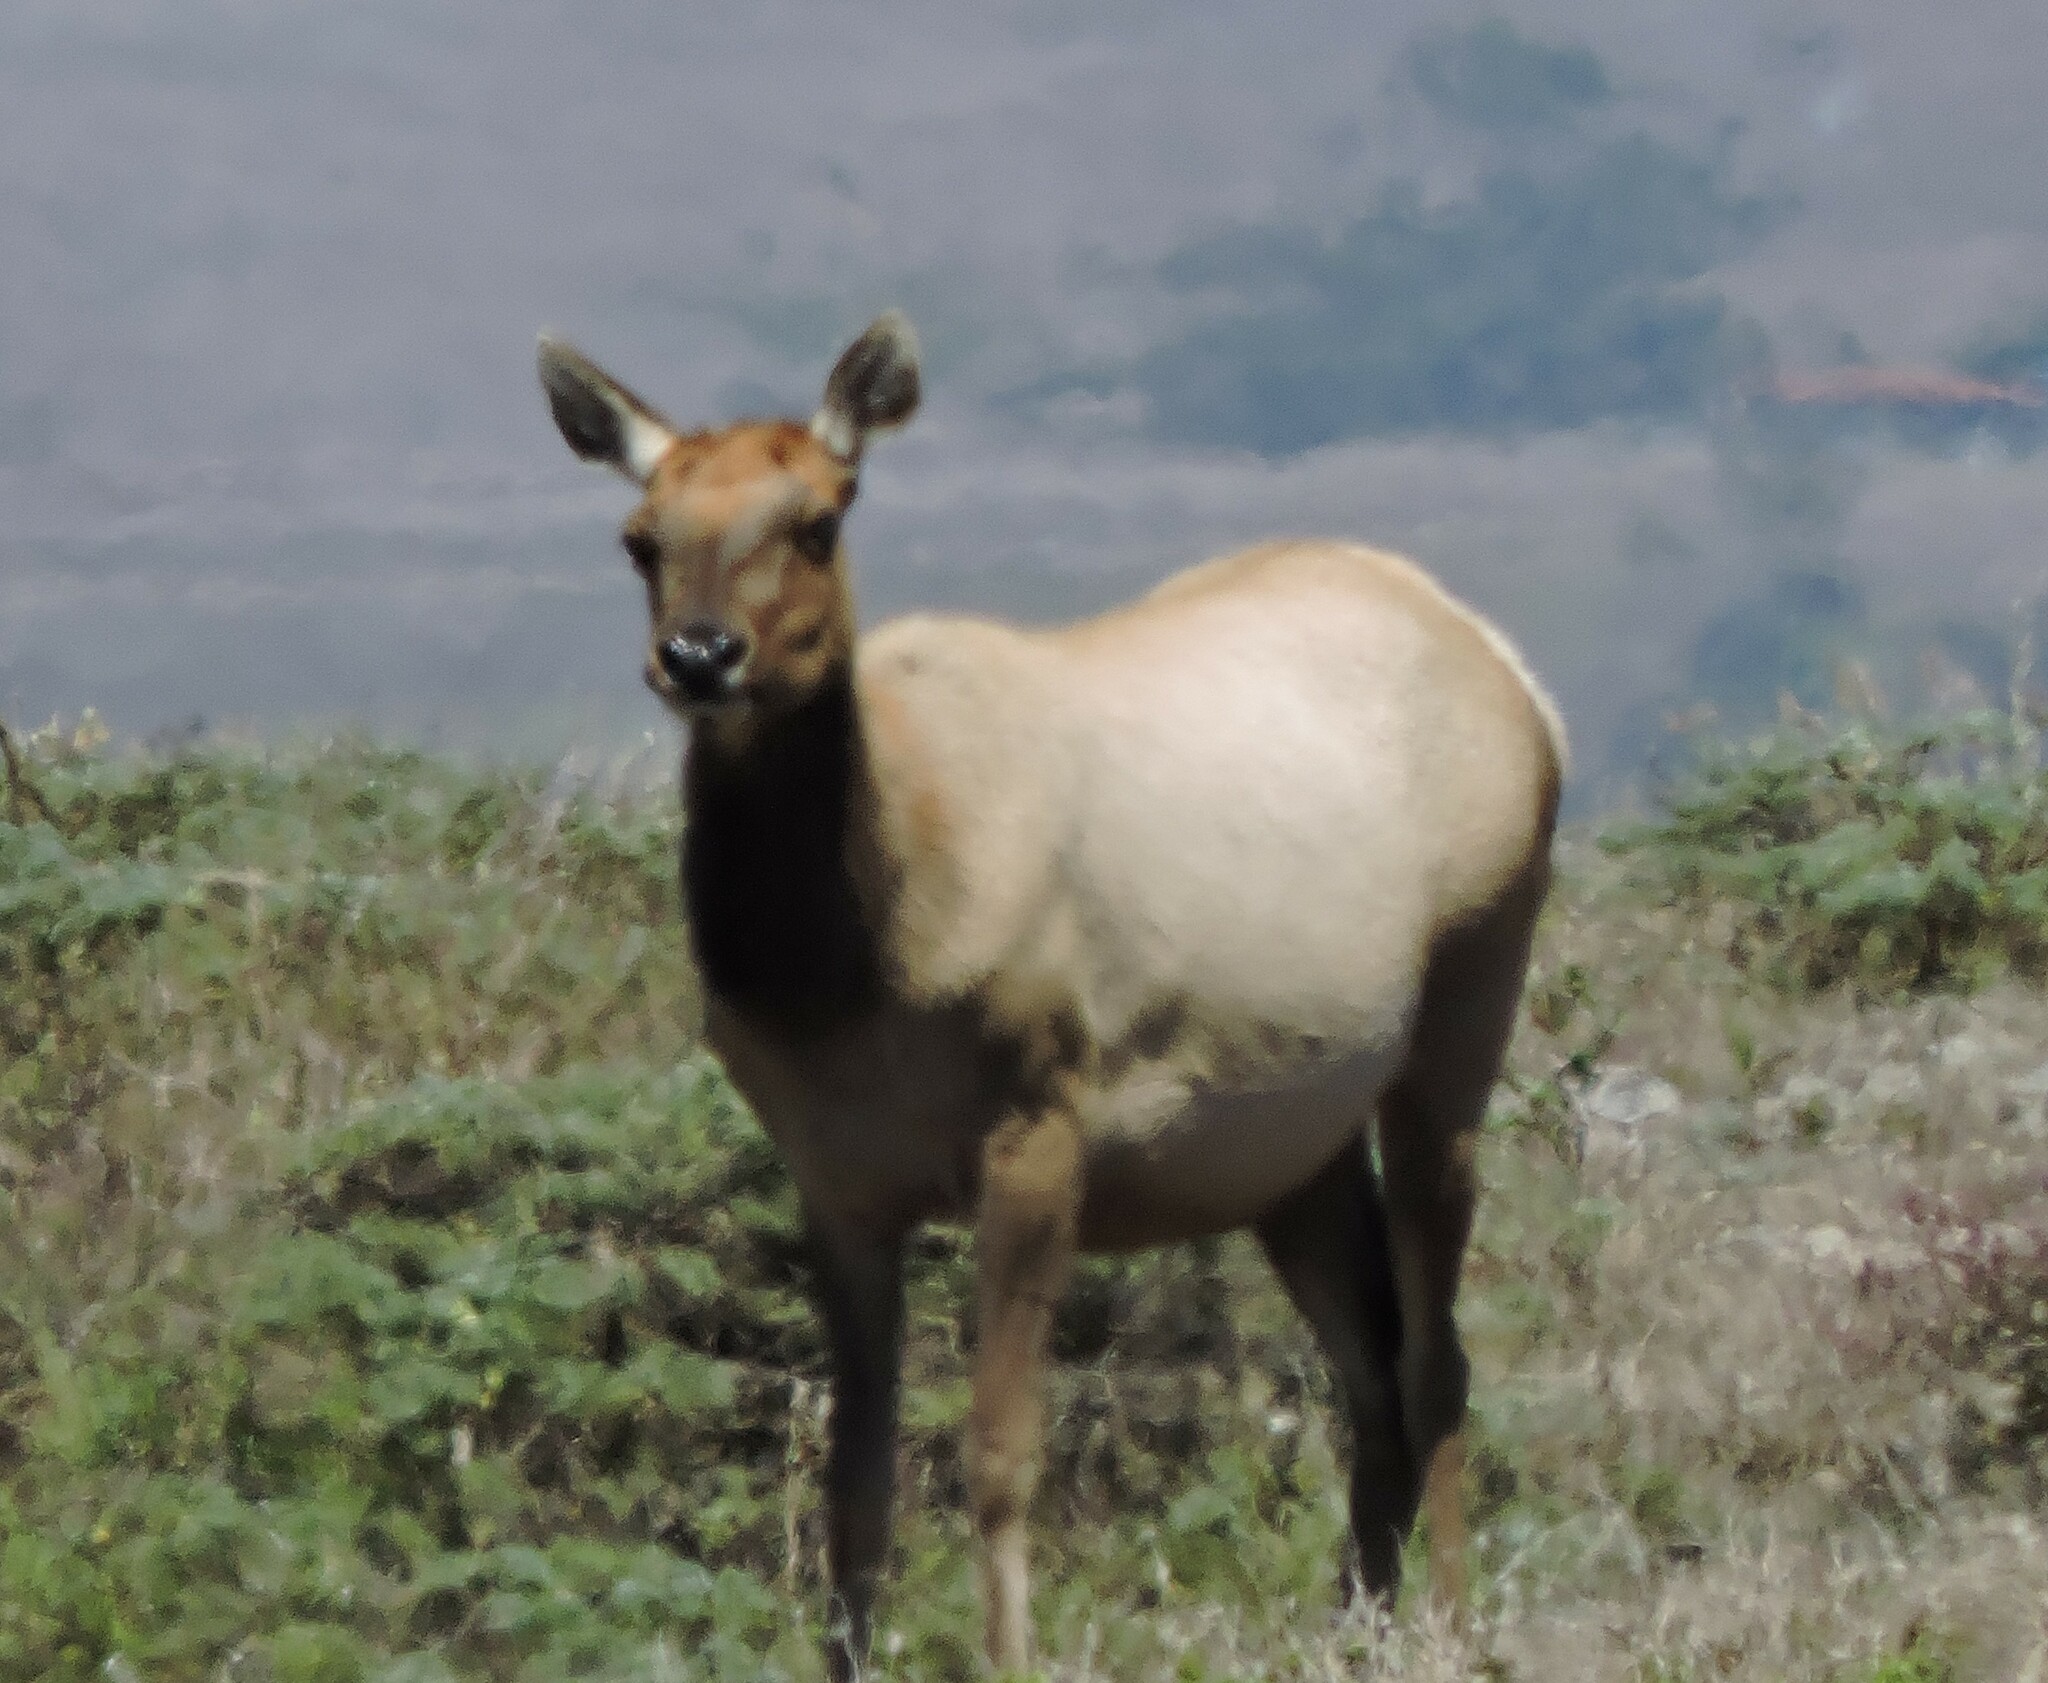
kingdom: Animalia
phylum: Chordata
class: Mammalia
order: Artiodactyla
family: Cervidae
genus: Cervus
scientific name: Cervus elaphus
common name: Red deer
